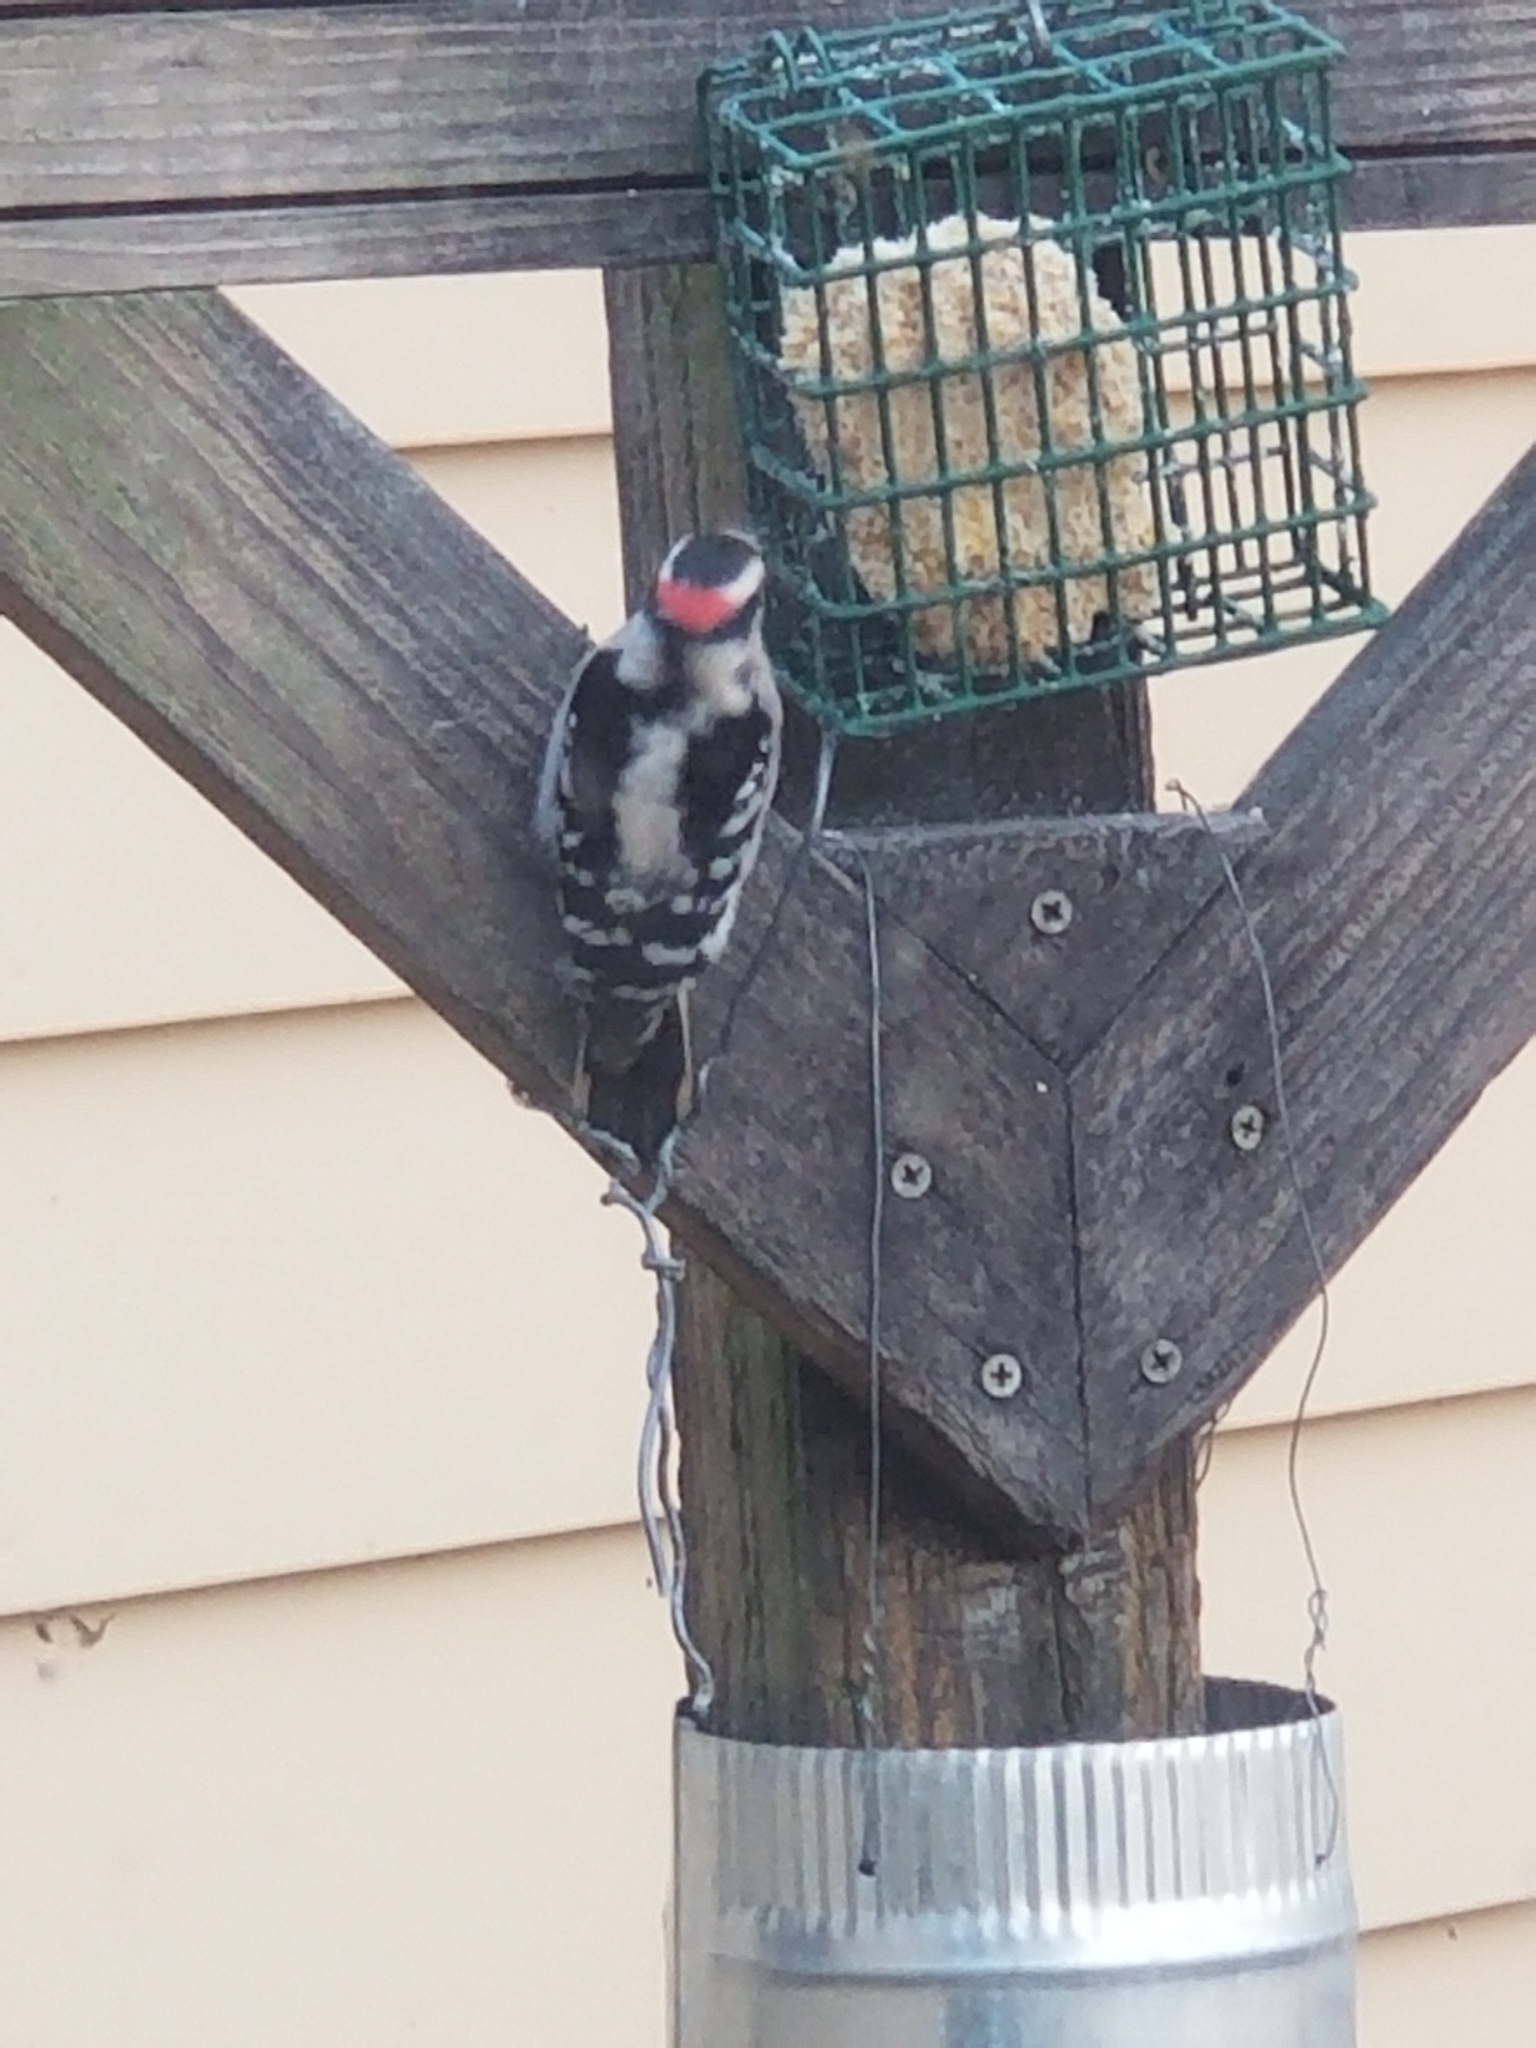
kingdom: Animalia
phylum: Chordata
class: Aves
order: Piciformes
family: Picidae
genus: Dryobates
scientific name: Dryobates pubescens
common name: Downy woodpecker
